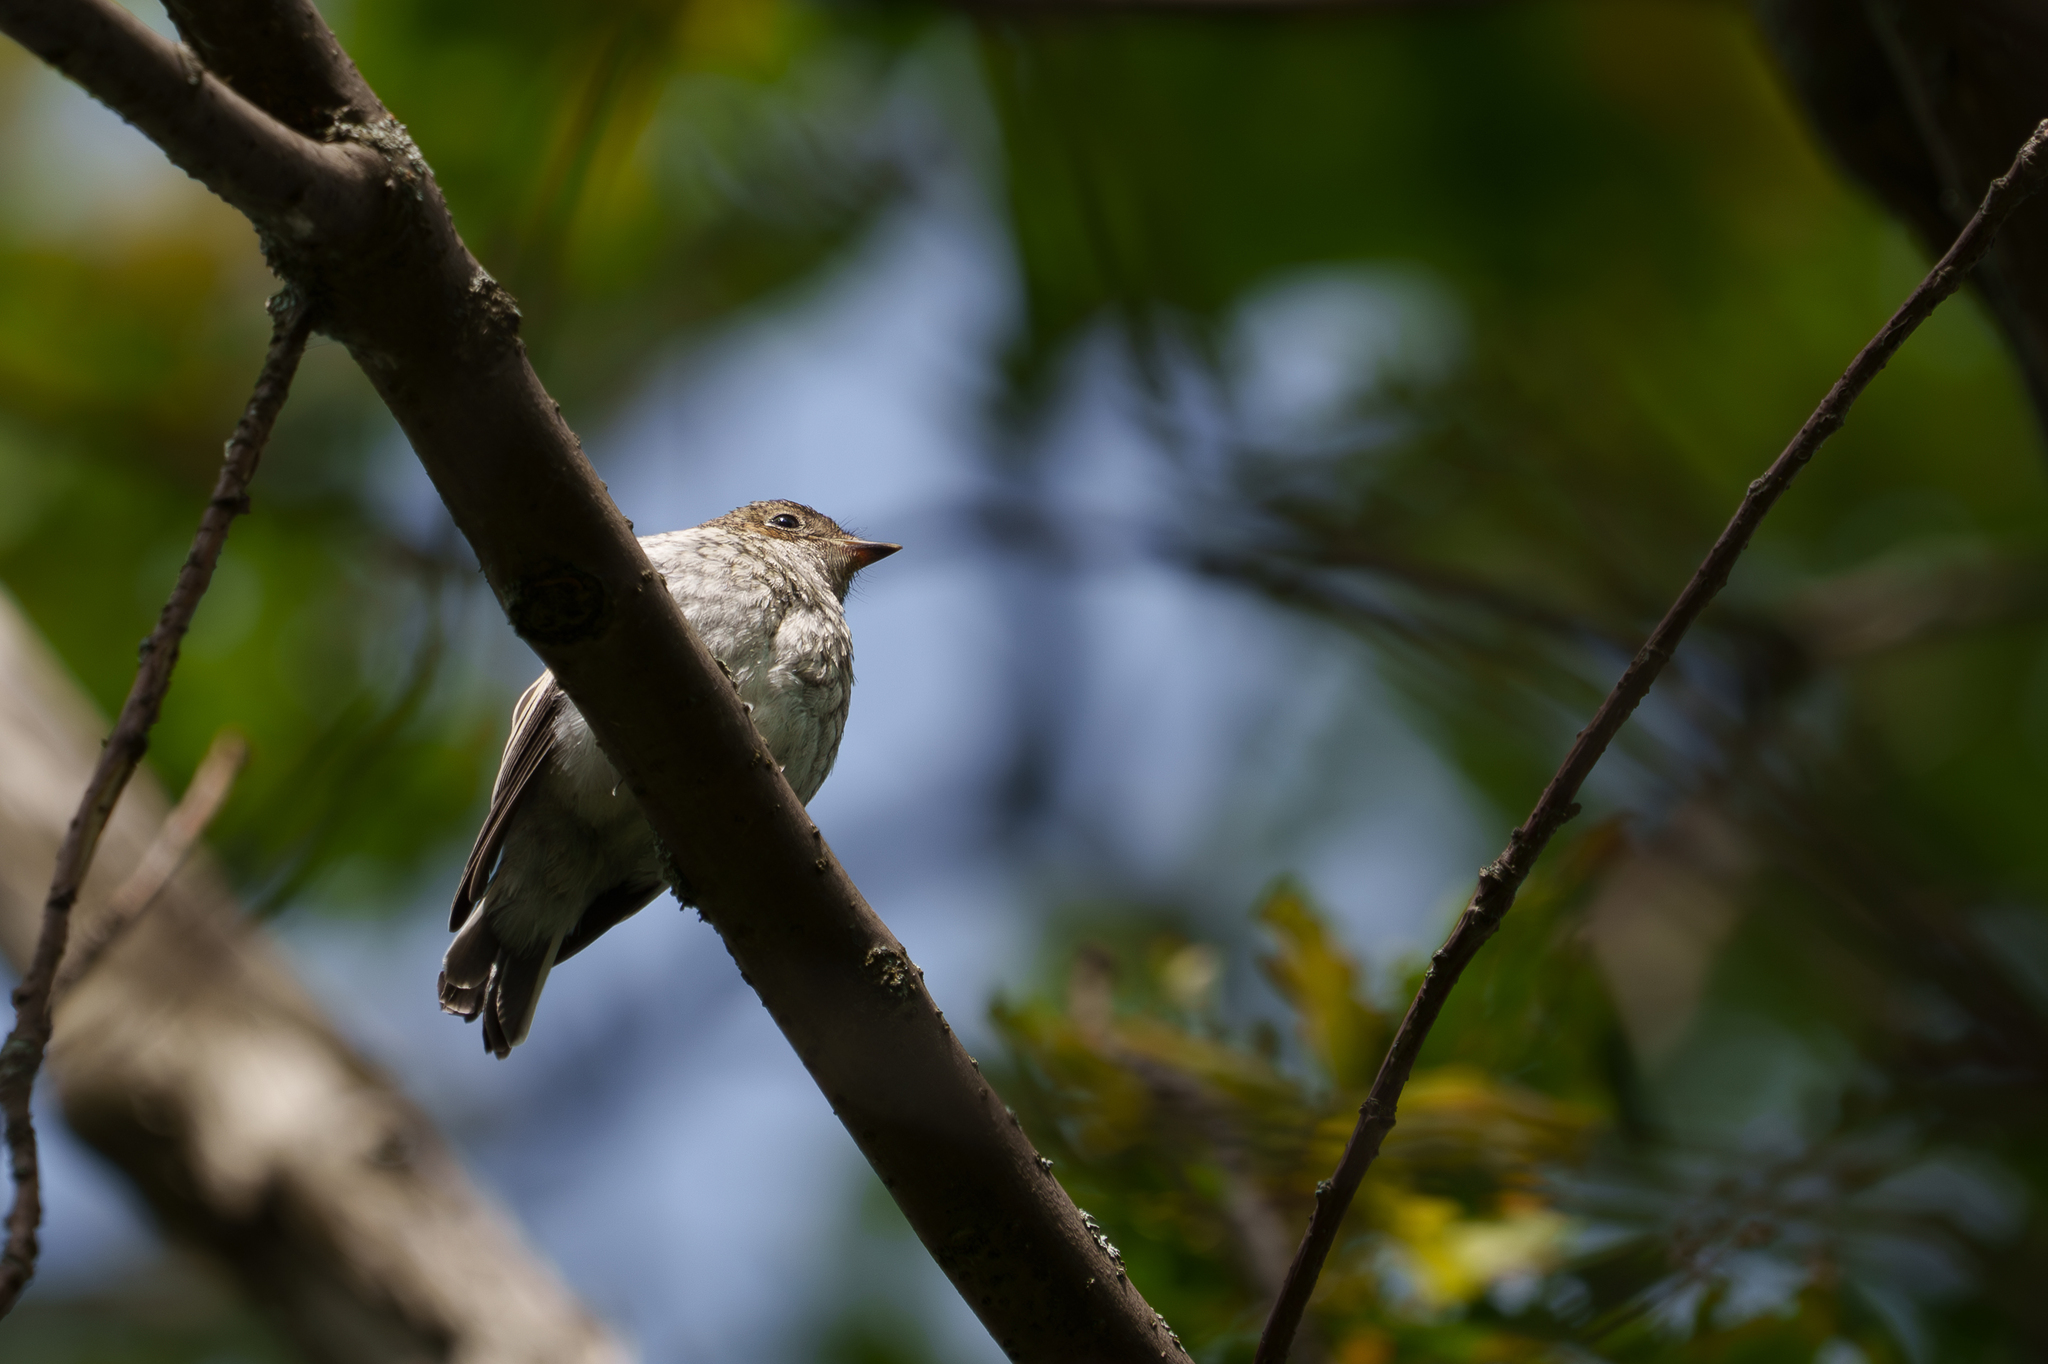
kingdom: Animalia
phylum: Chordata
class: Aves
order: Passeriformes
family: Muscicapidae
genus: Ficedula
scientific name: Ficedula hypoleuca
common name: European pied flycatcher
